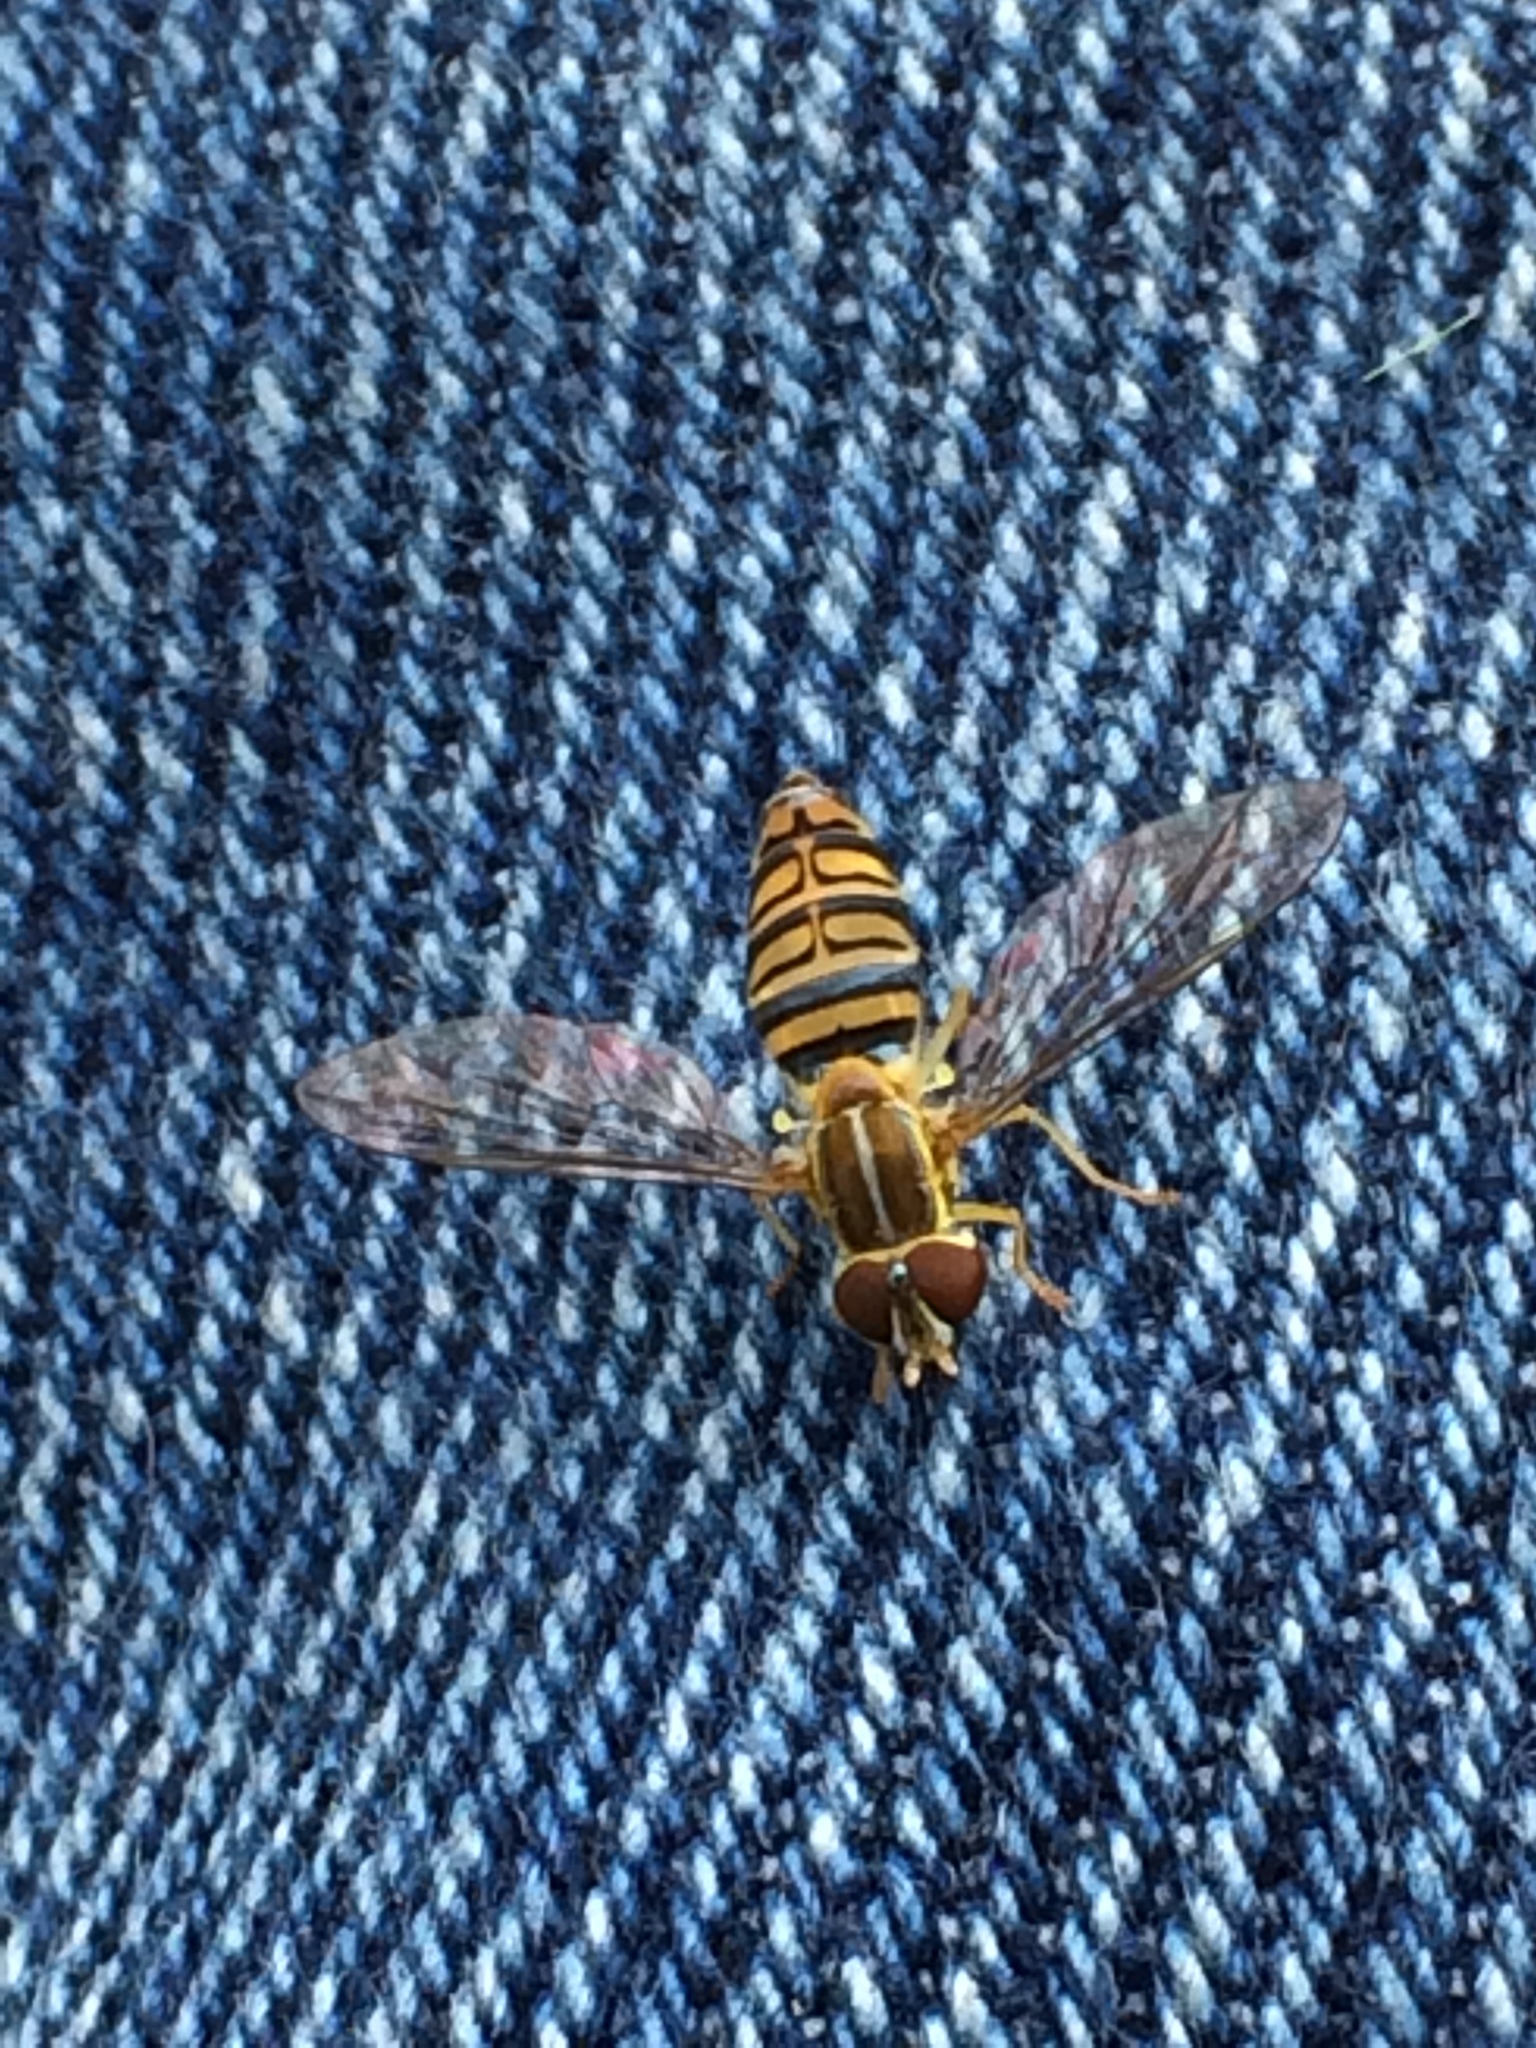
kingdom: Animalia
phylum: Arthropoda
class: Insecta
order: Diptera
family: Syrphidae
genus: Toxomerus
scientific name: Toxomerus politus
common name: Maize calligrapher
